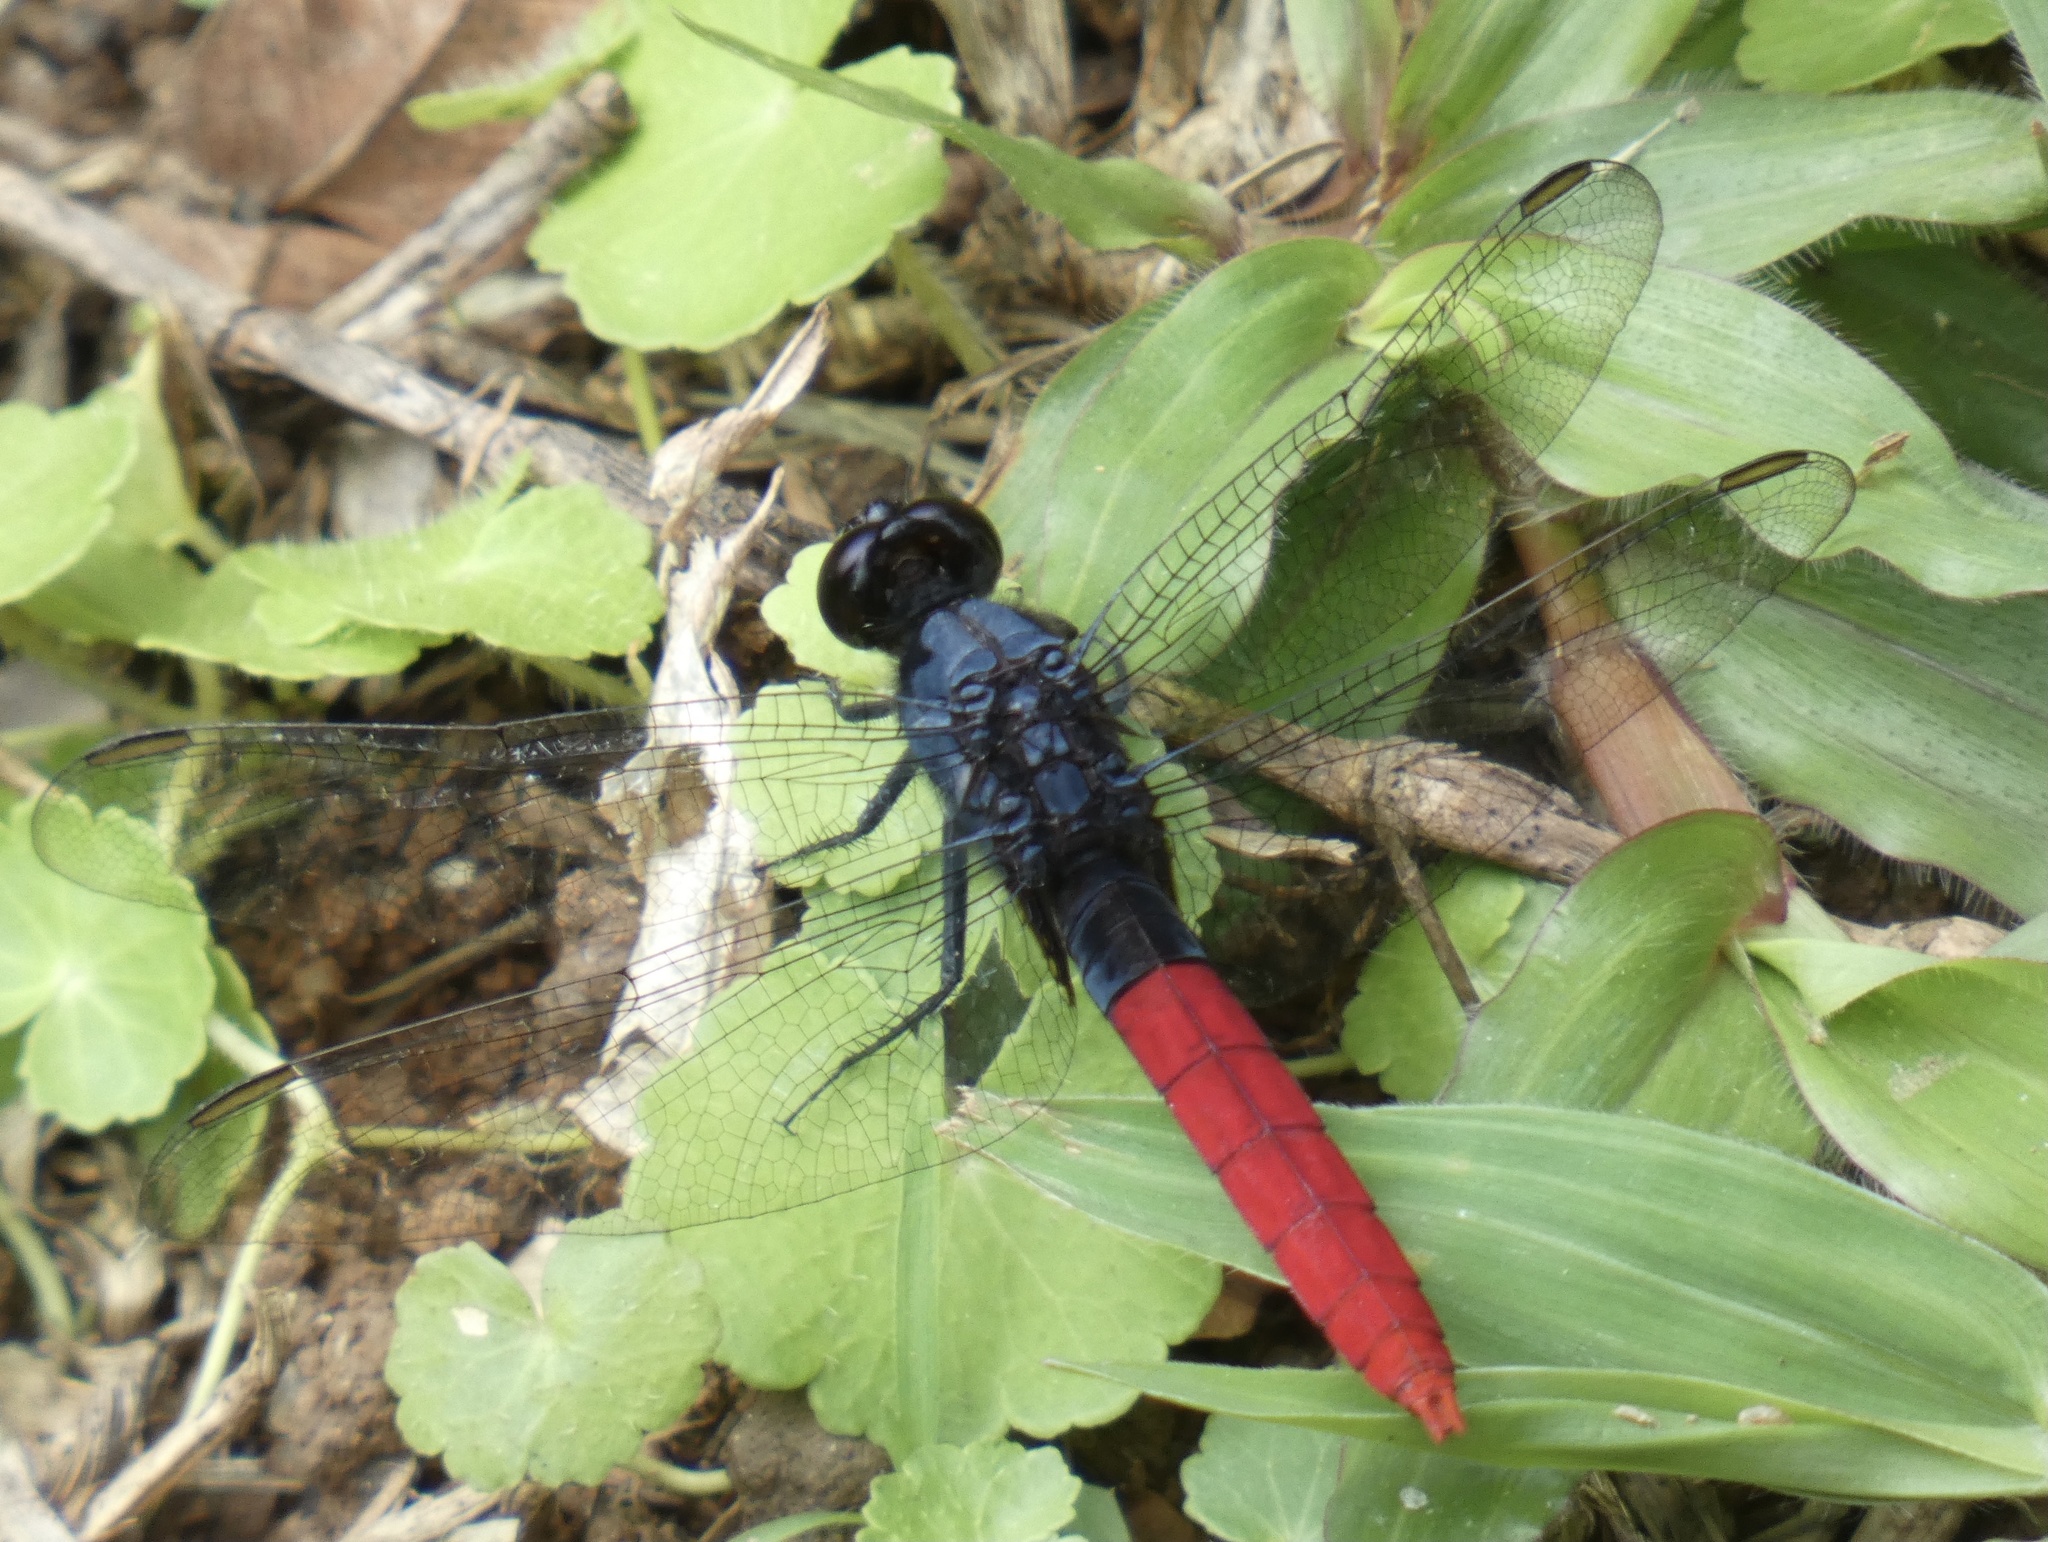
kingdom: Animalia
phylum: Arthropoda
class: Insecta
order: Odonata
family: Libellulidae
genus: Erythemis
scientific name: Erythemis peruviana
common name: Flame-tailed pondhawk
